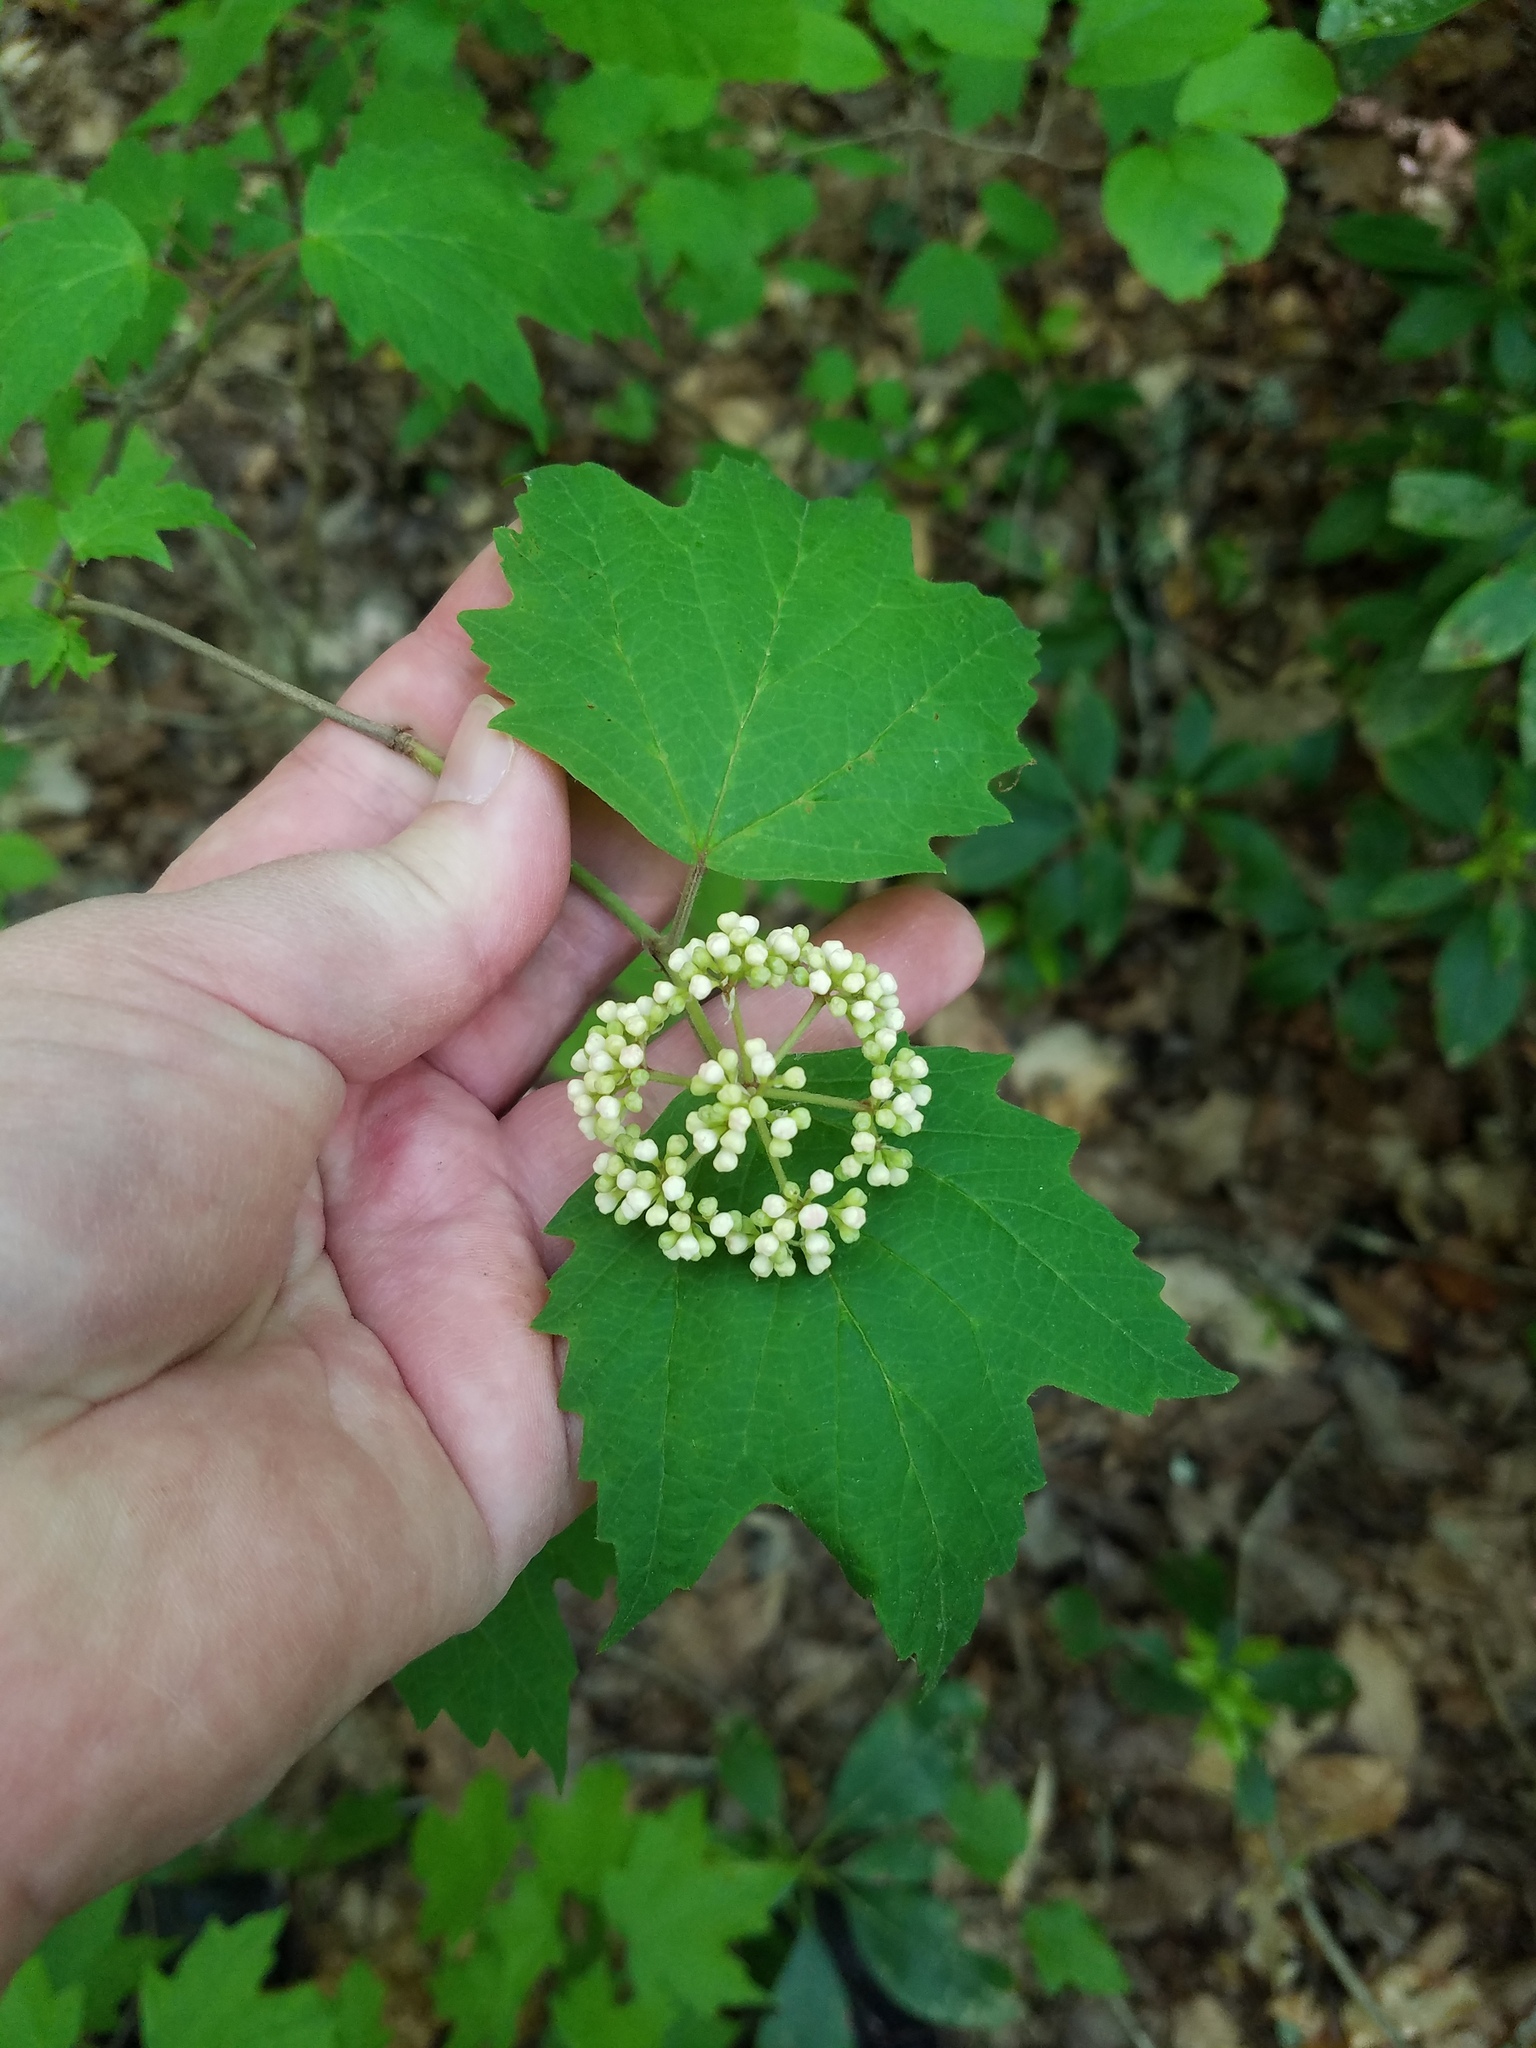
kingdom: Plantae
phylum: Tracheophyta
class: Magnoliopsida
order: Dipsacales
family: Viburnaceae
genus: Viburnum
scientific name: Viburnum acerifolium
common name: Dockmackie
